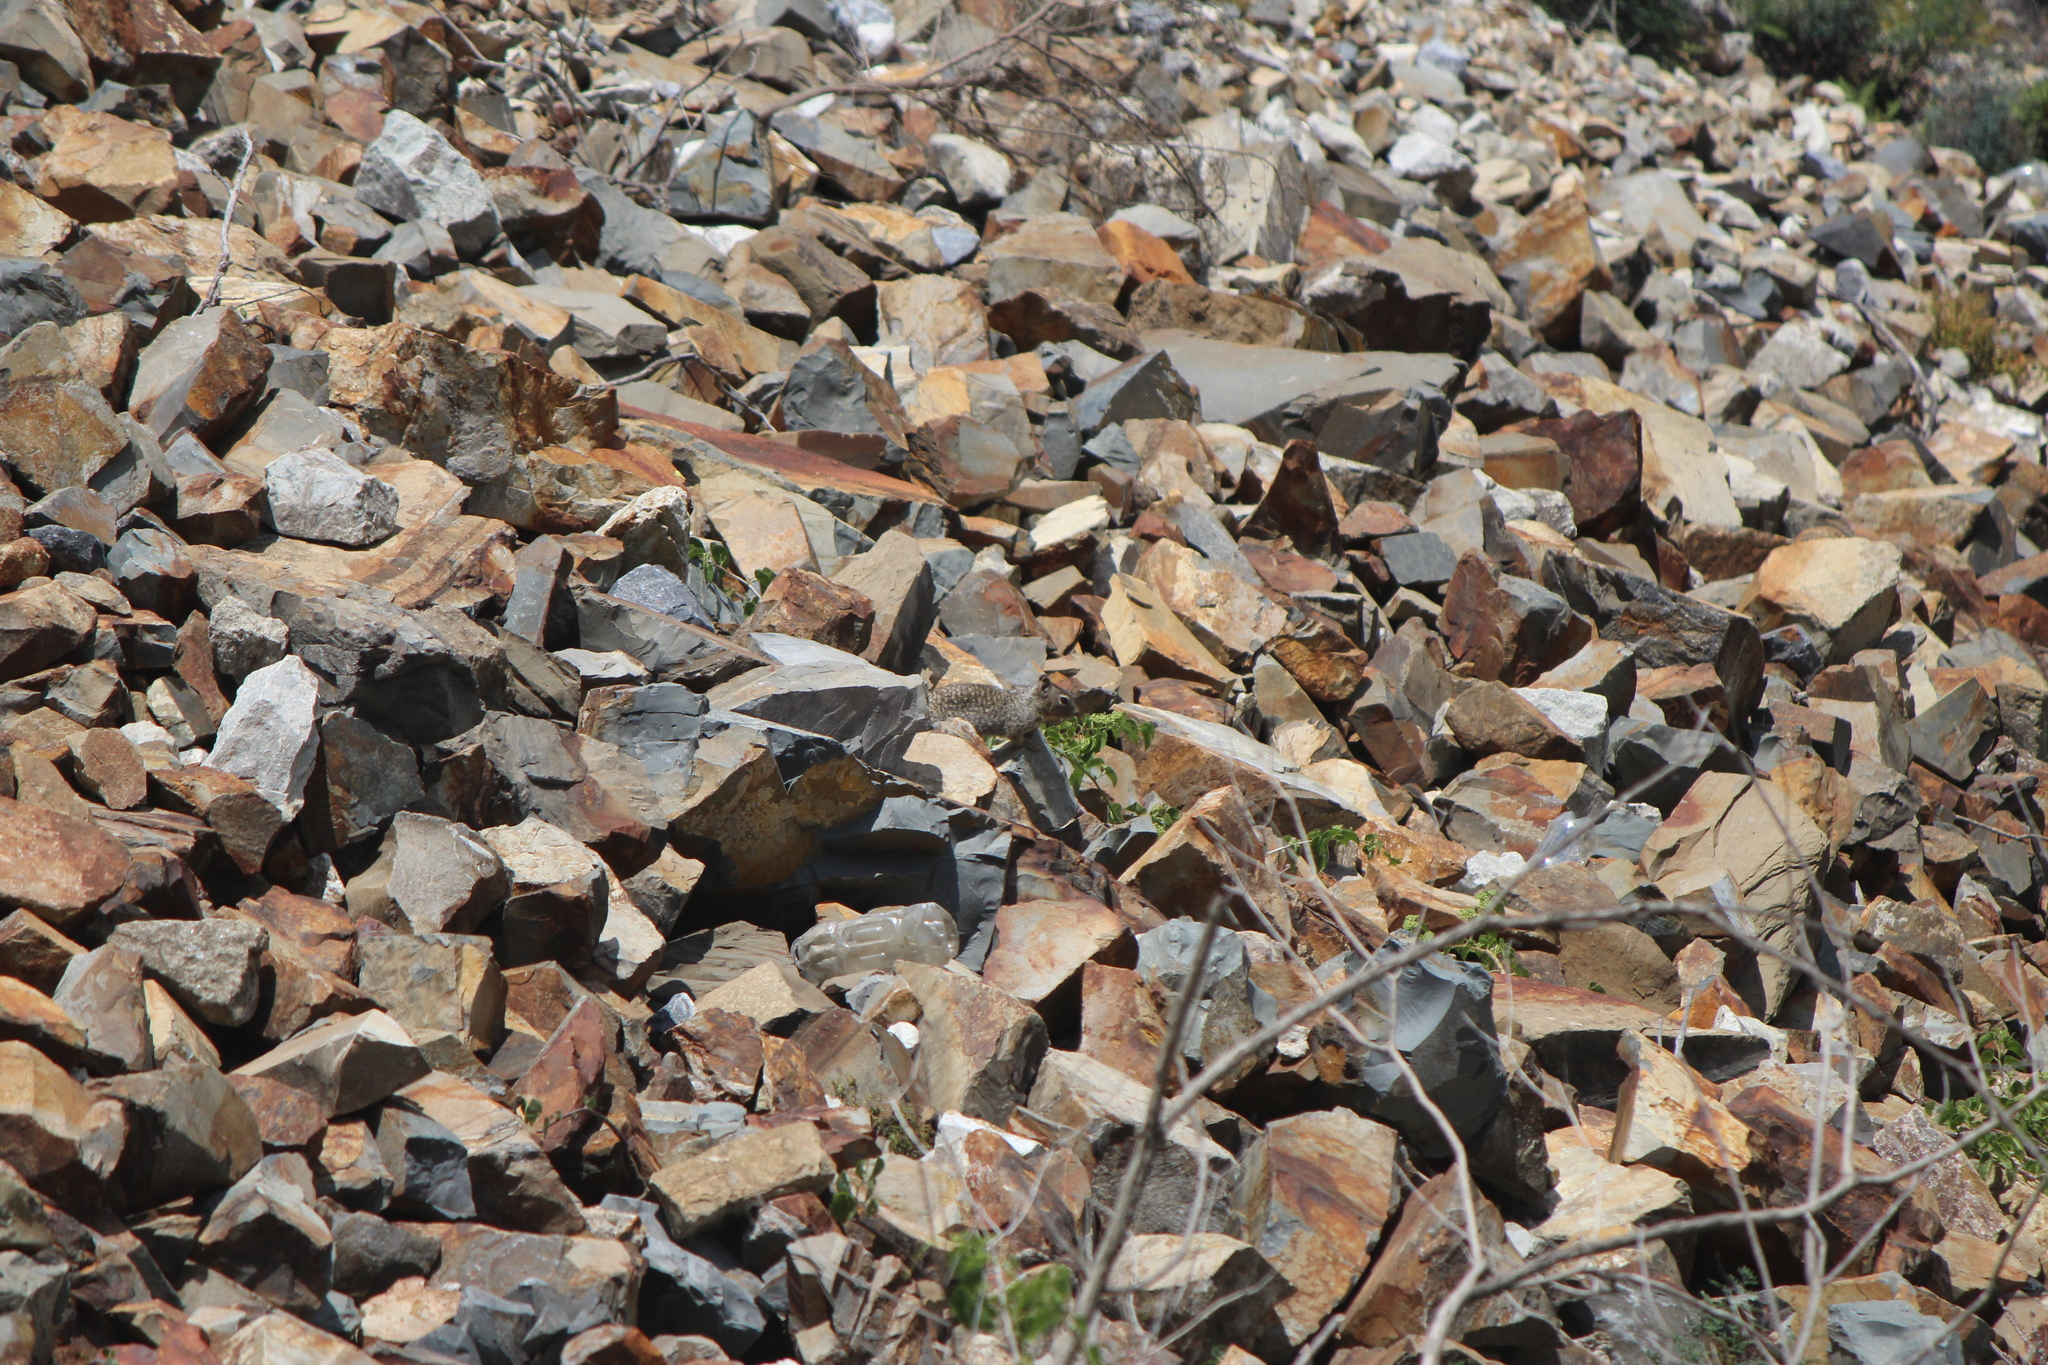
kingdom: Animalia
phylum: Chordata
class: Mammalia
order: Rodentia
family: Sciuridae
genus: Otospermophilus
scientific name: Otospermophilus variegatus
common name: Rock squirrel
